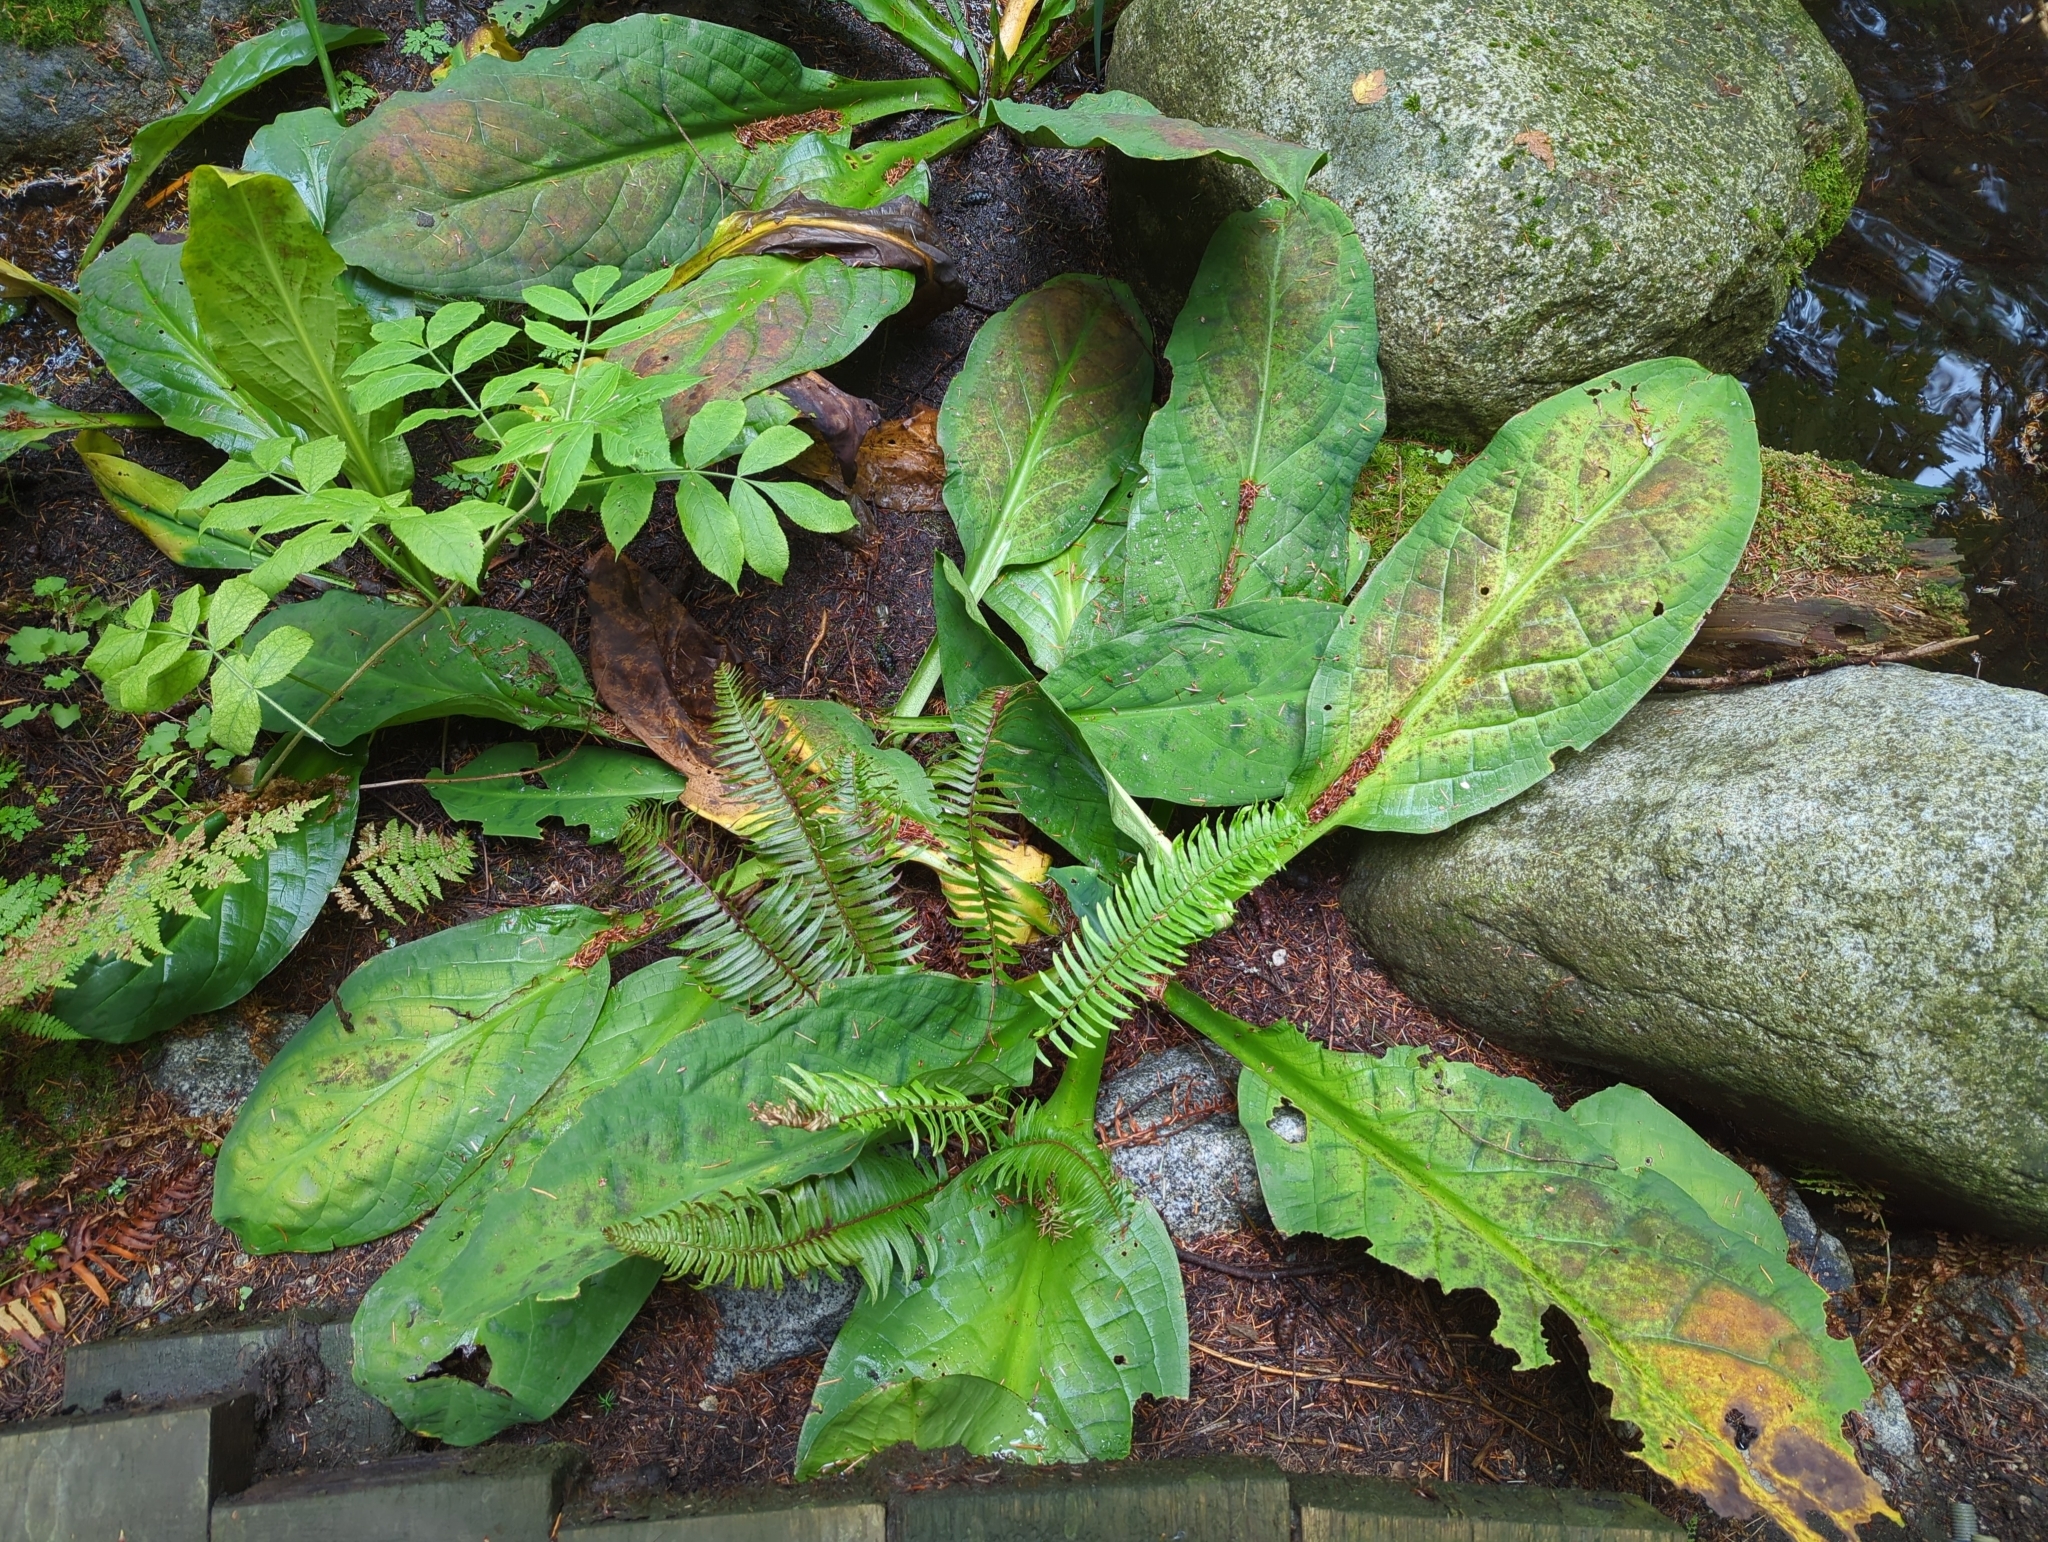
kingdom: Plantae
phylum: Tracheophyta
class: Liliopsida
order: Alismatales
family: Araceae
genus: Lysichiton
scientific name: Lysichiton americanus
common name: American skunk cabbage
